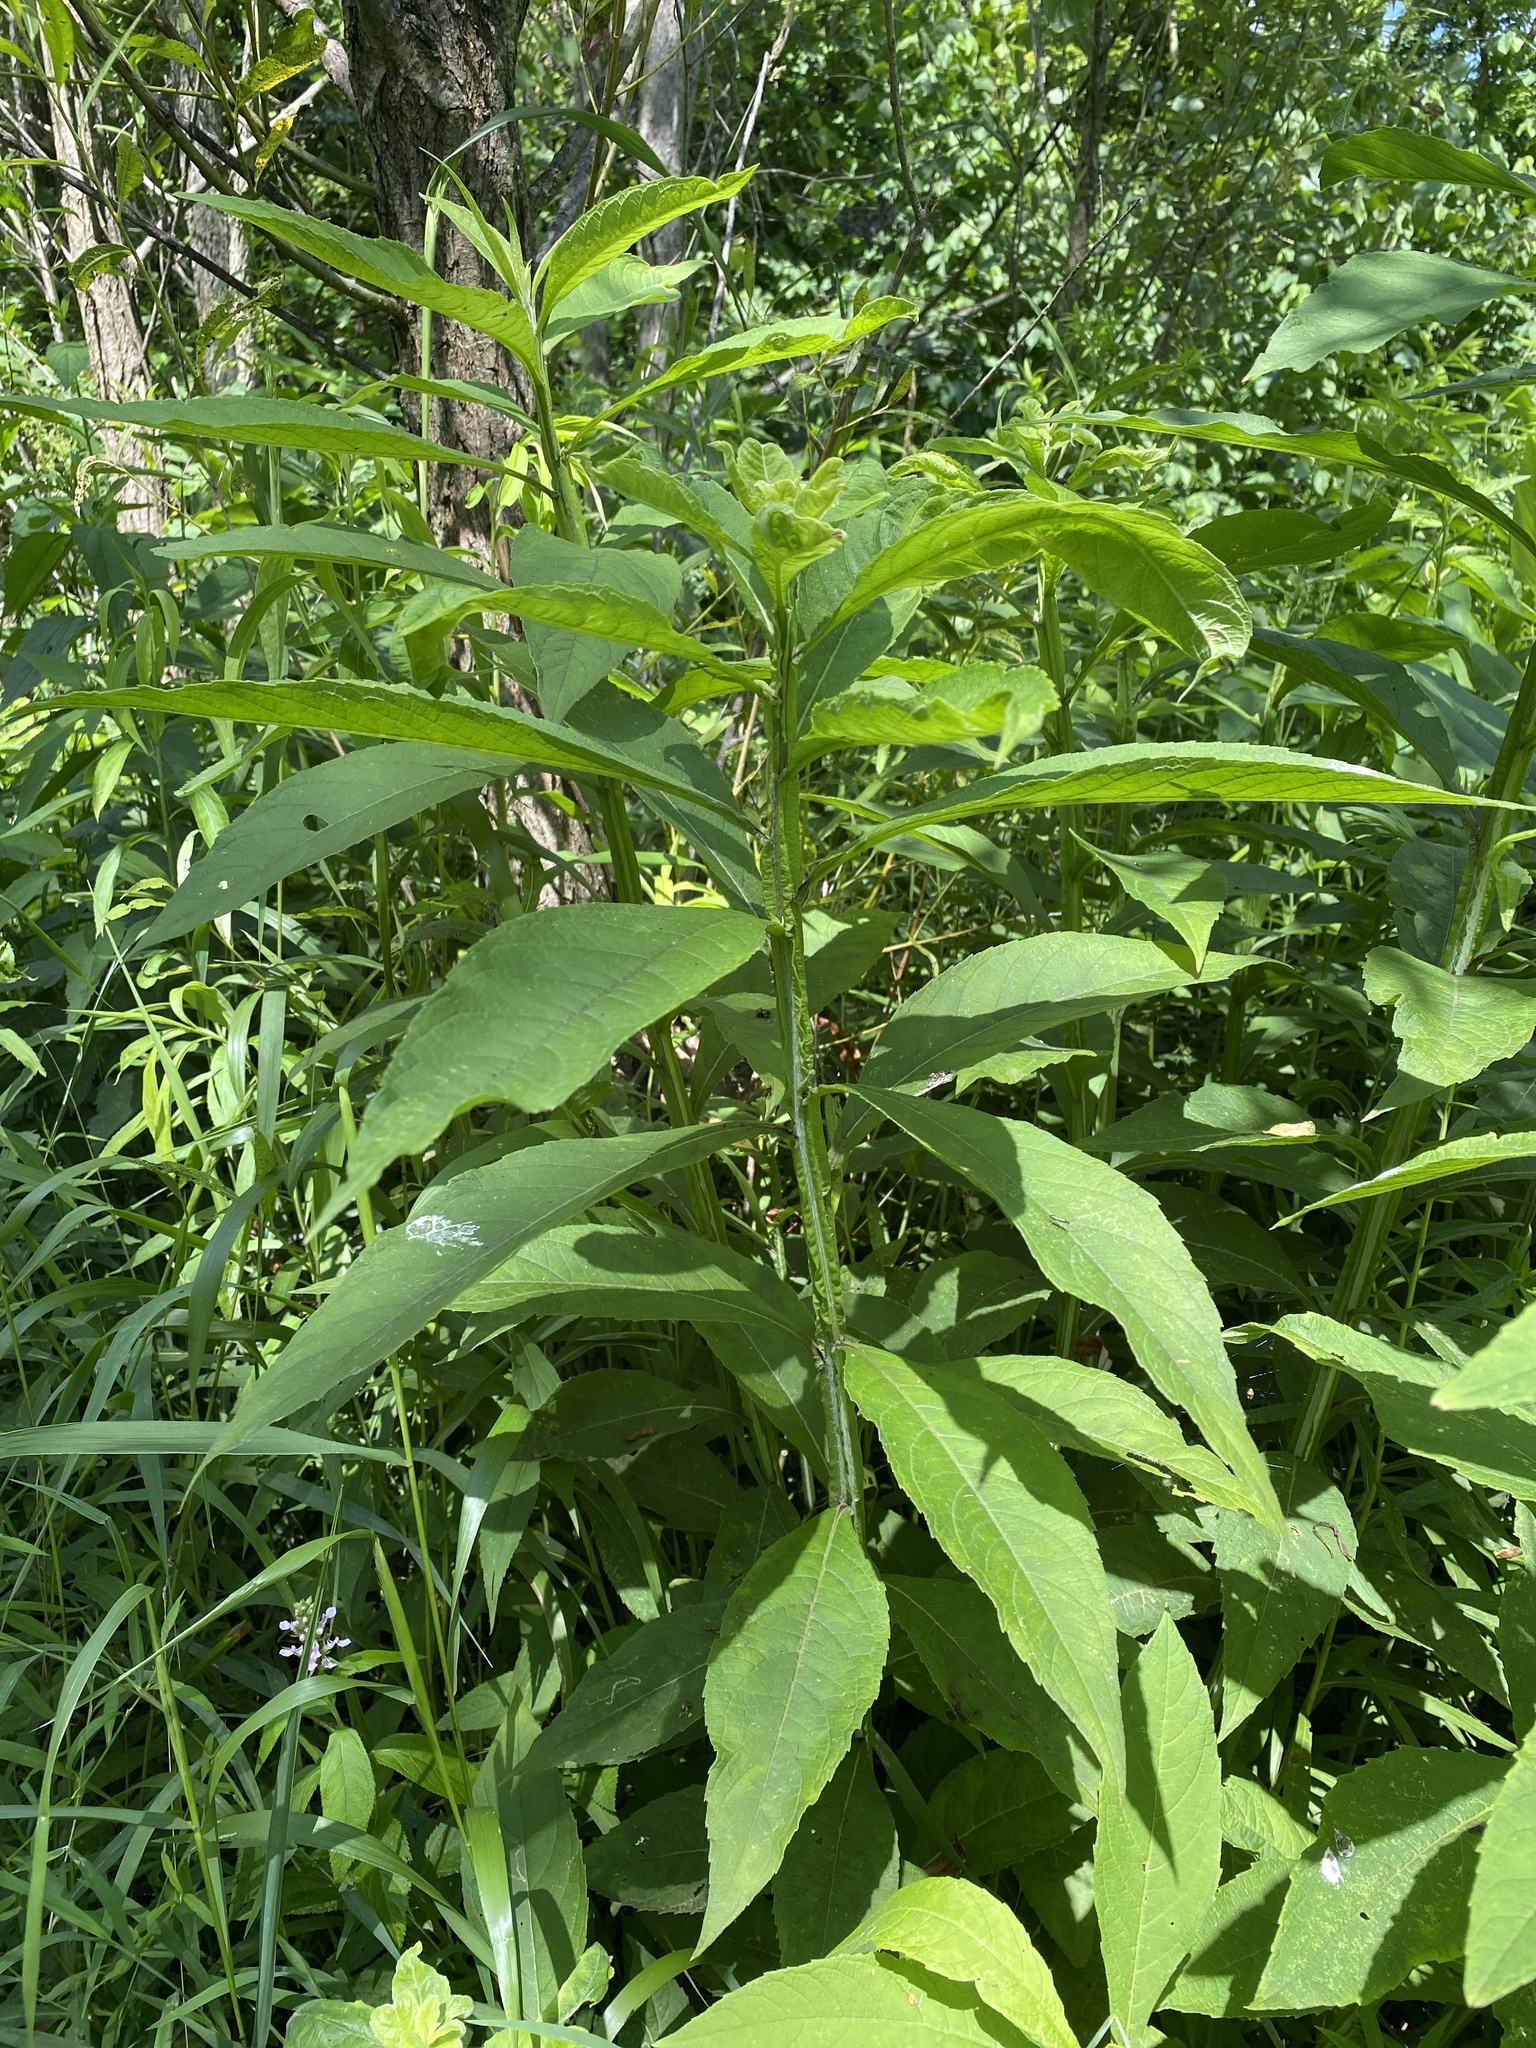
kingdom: Plantae
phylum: Tracheophyta
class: Magnoliopsida
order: Asterales
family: Asteraceae
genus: Verbesina
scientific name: Verbesina alternifolia
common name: Wingstem
